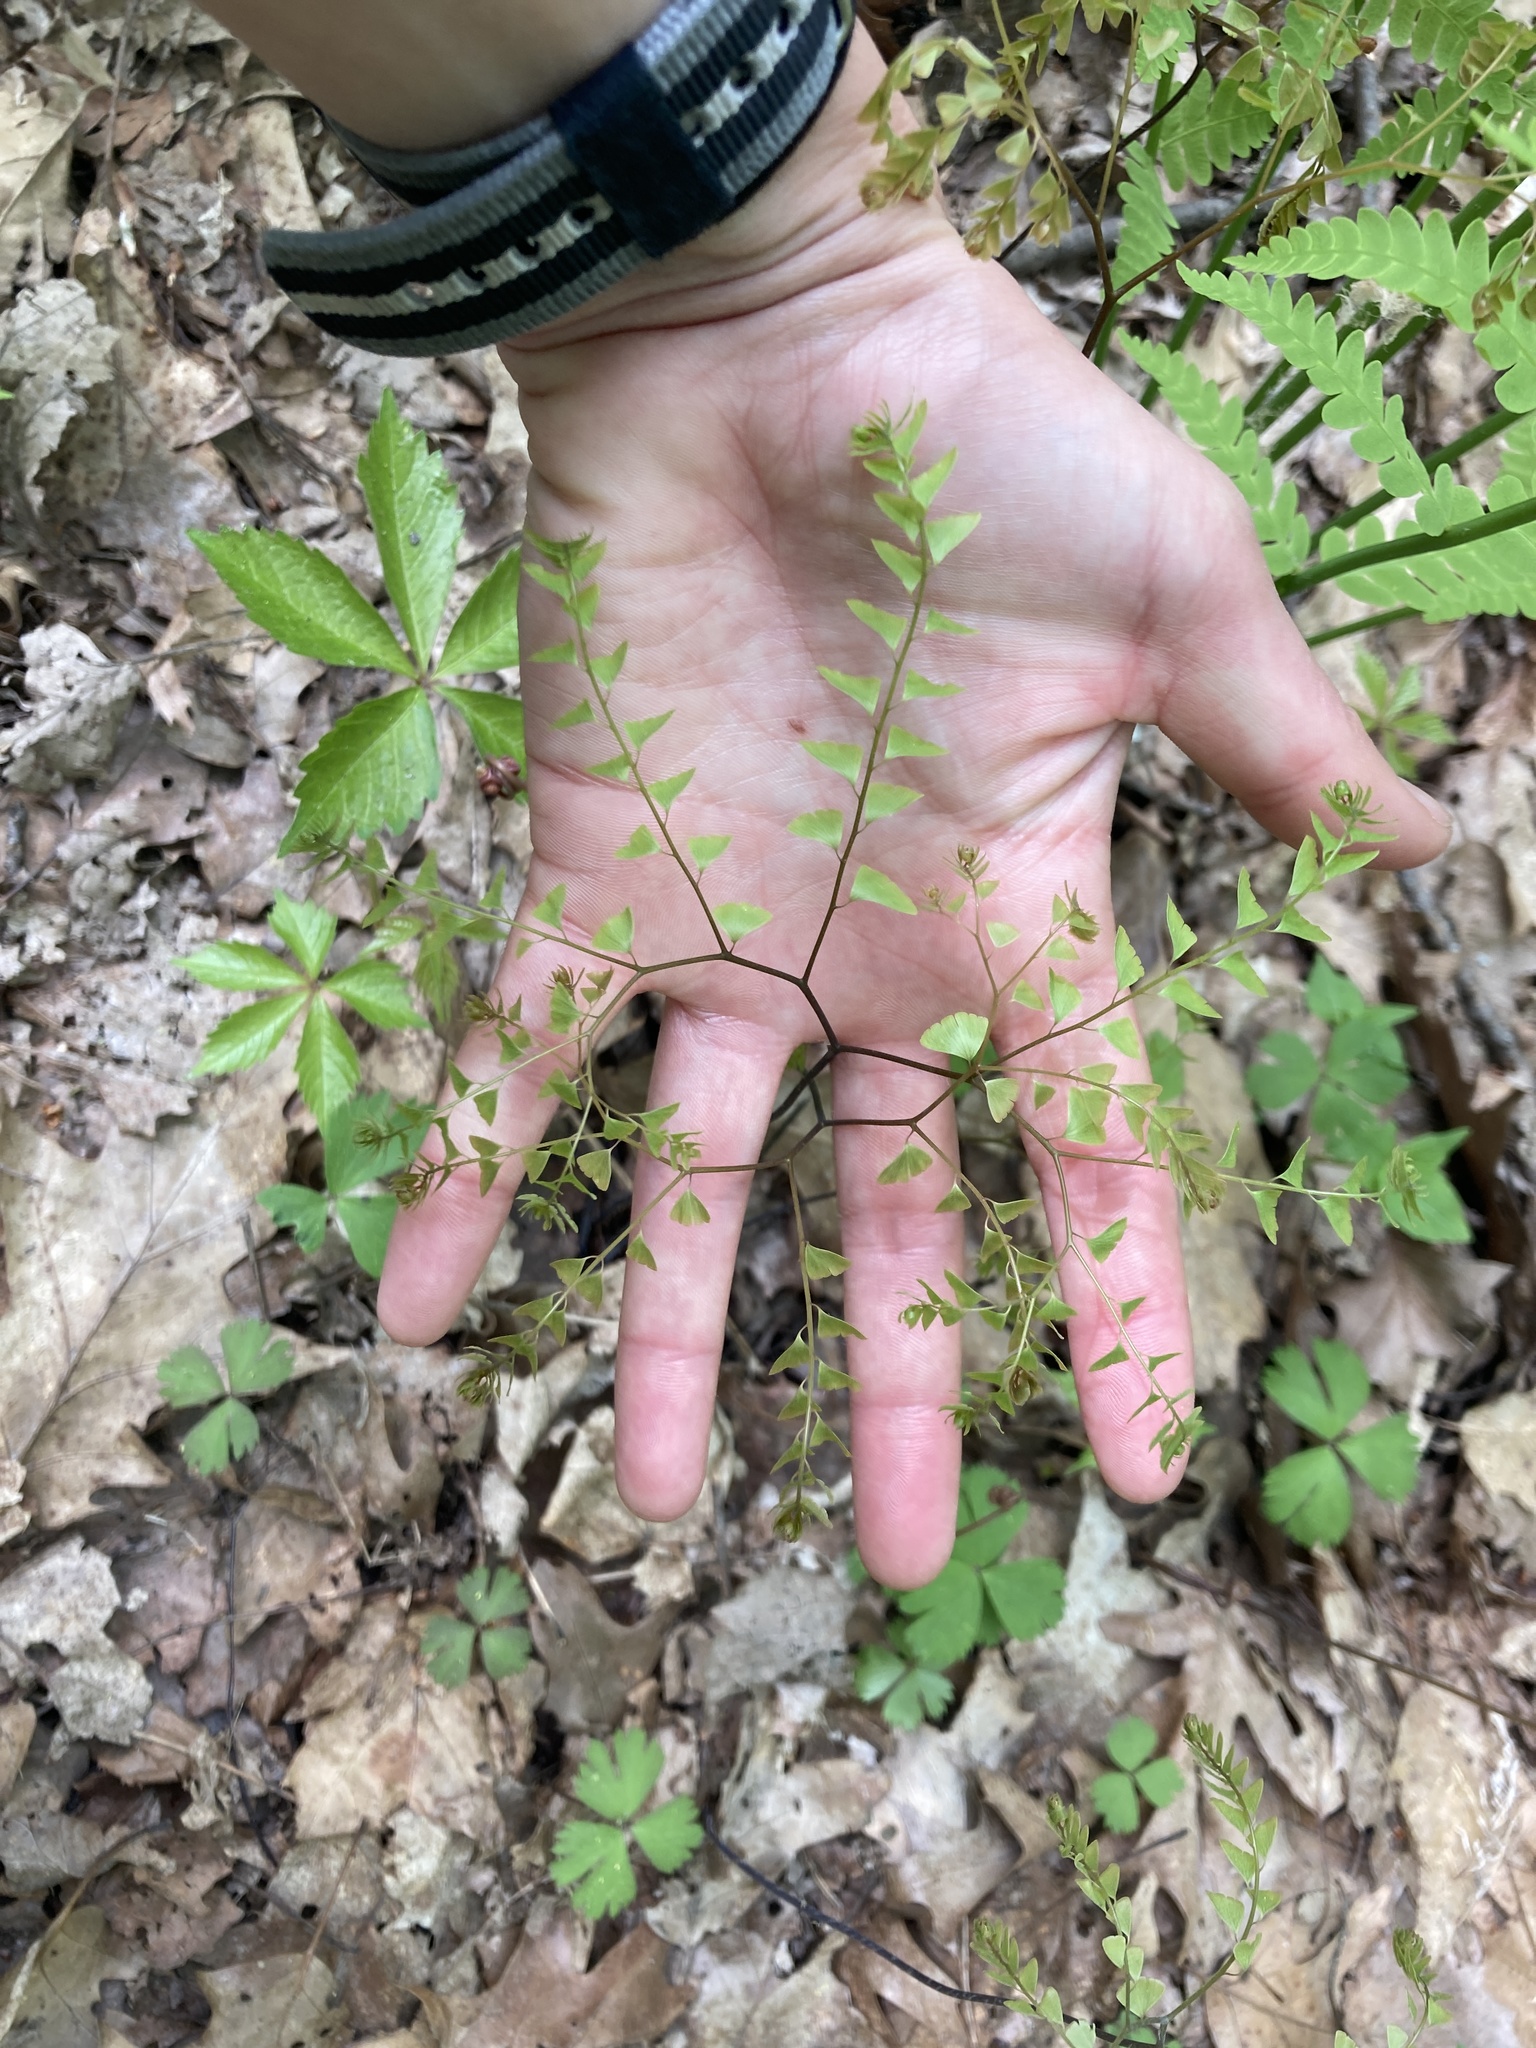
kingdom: Plantae
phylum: Tracheophyta
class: Polypodiopsida
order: Polypodiales
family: Pteridaceae
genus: Adiantum
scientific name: Adiantum pedatum
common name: Five-finger fern
